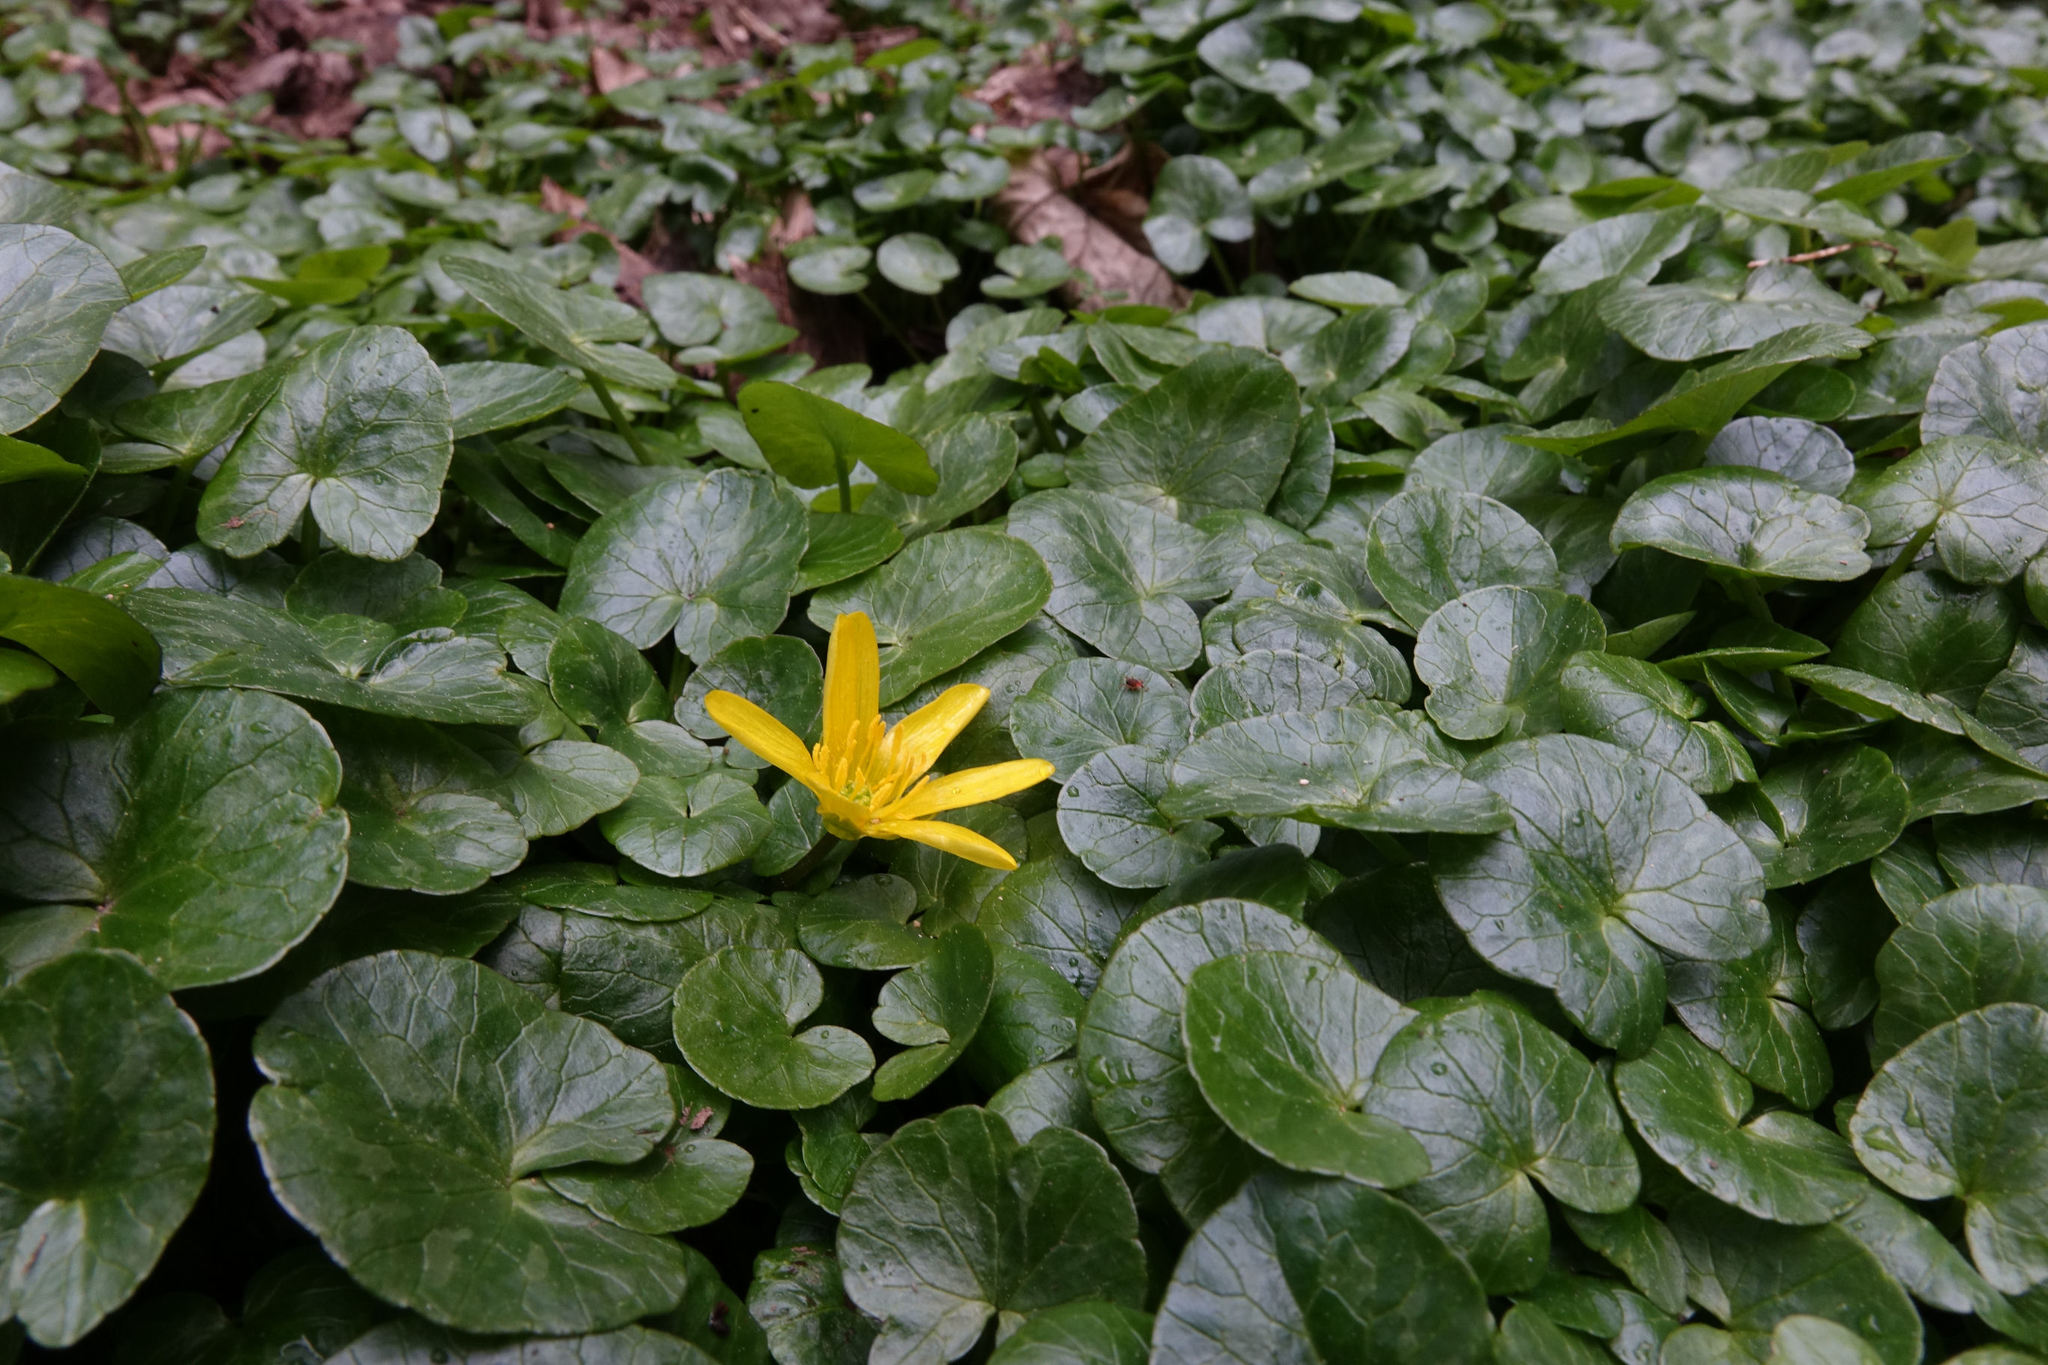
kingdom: Plantae
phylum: Tracheophyta
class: Magnoliopsida
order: Ranunculales
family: Ranunculaceae
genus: Ficaria
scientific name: Ficaria grandiflora
